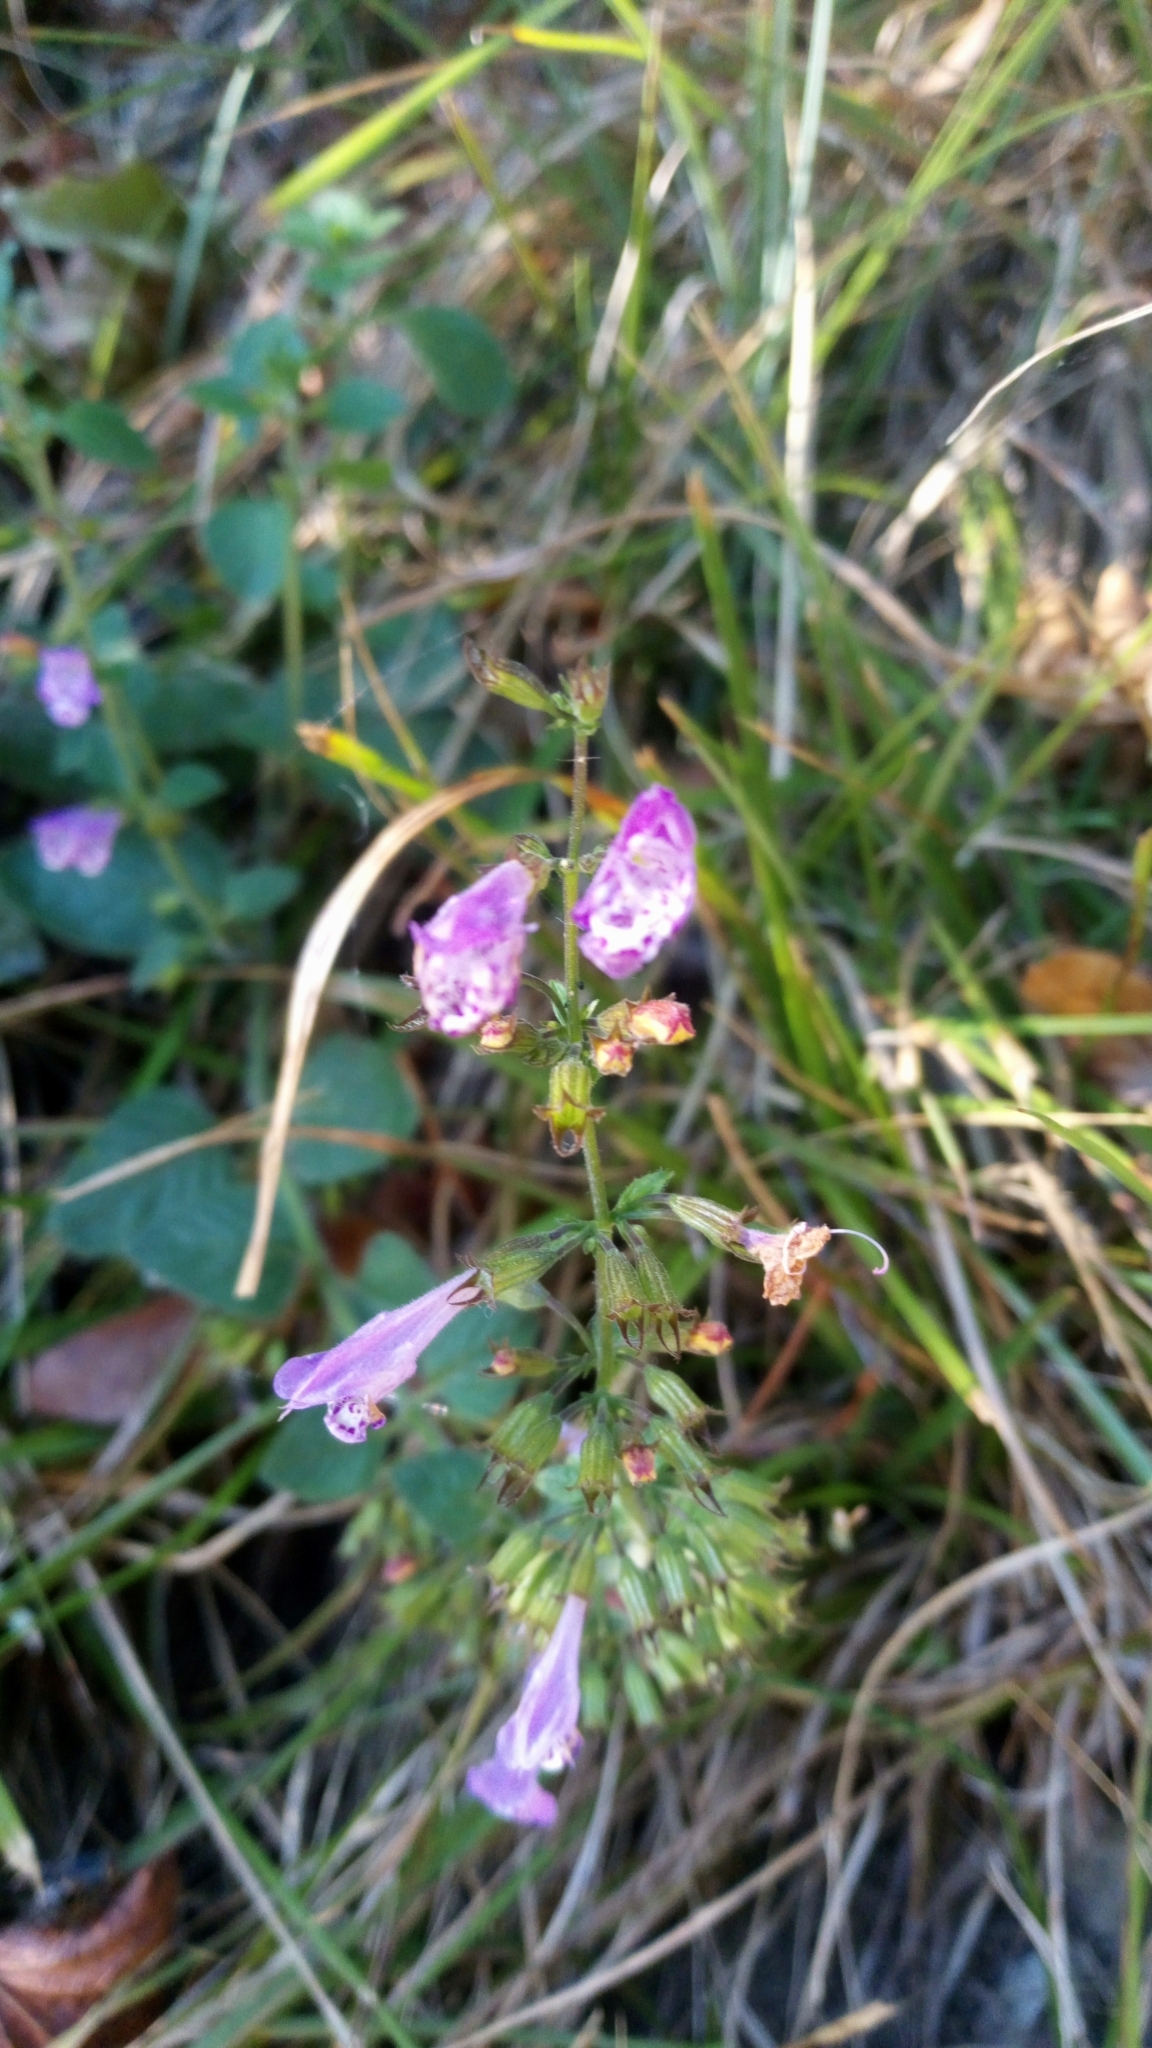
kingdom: Plantae
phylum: Tracheophyta
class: Magnoliopsida
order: Lamiales
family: Lamiaceae
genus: Clinopodium
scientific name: Clinopodium menthifolium
